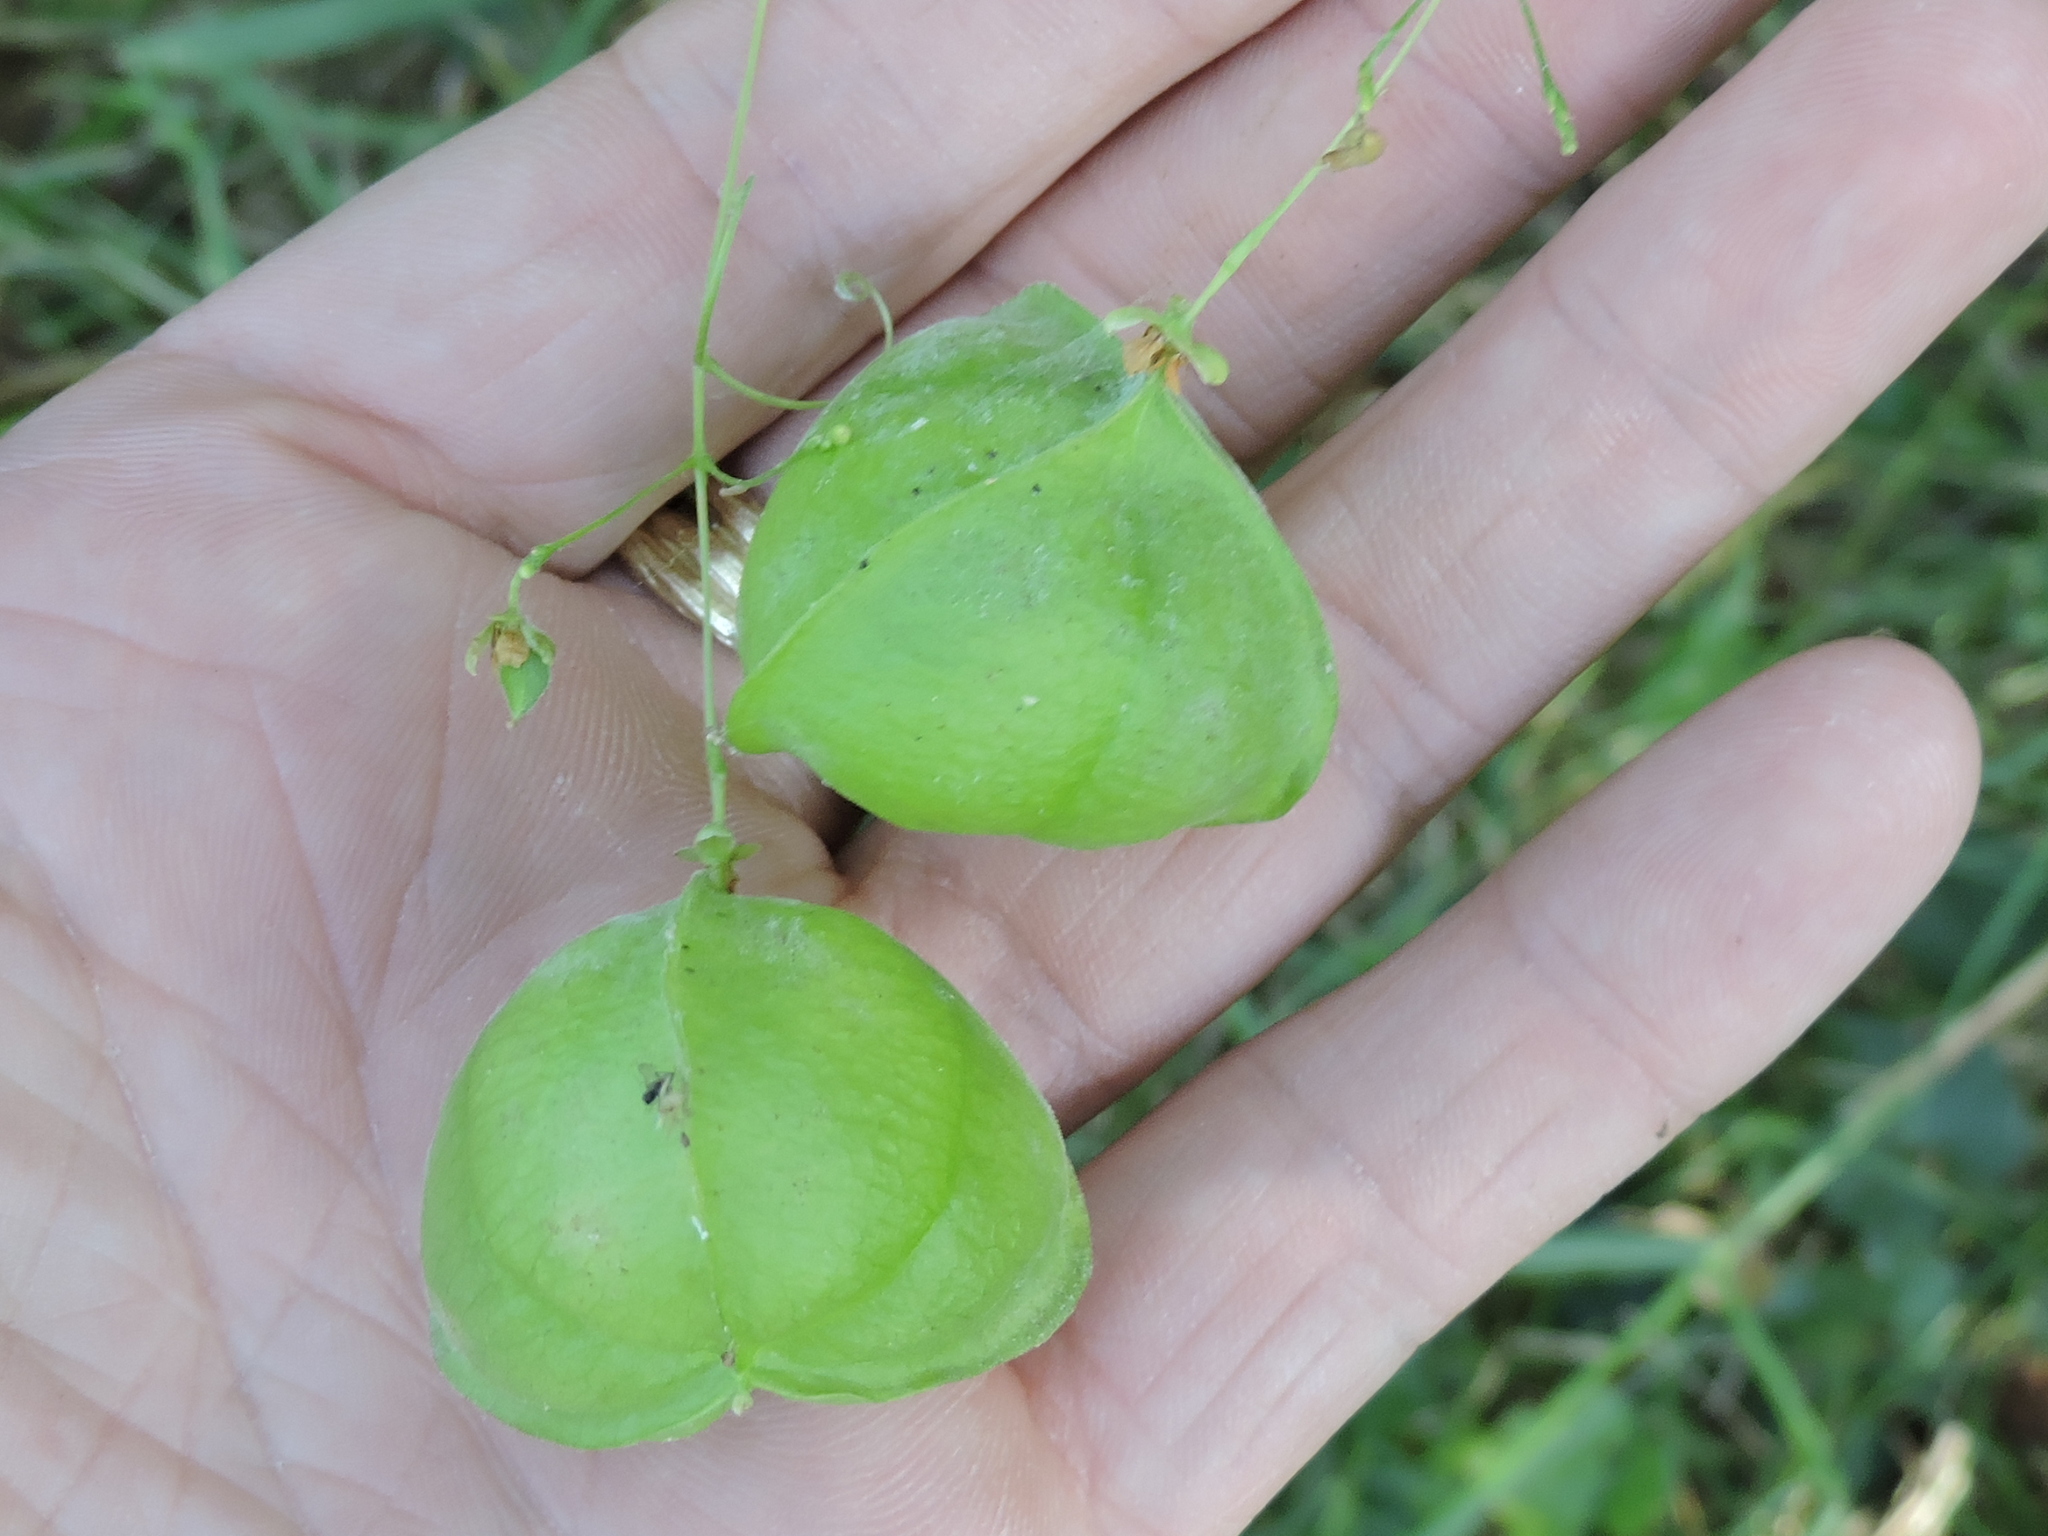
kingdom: Plantae
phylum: Tracheophyta
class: Magnoliopsida
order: Sapindales
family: Sapindaceae
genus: Cardiospermum
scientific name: Cardiospermum halicacabum
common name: Balloon vine
